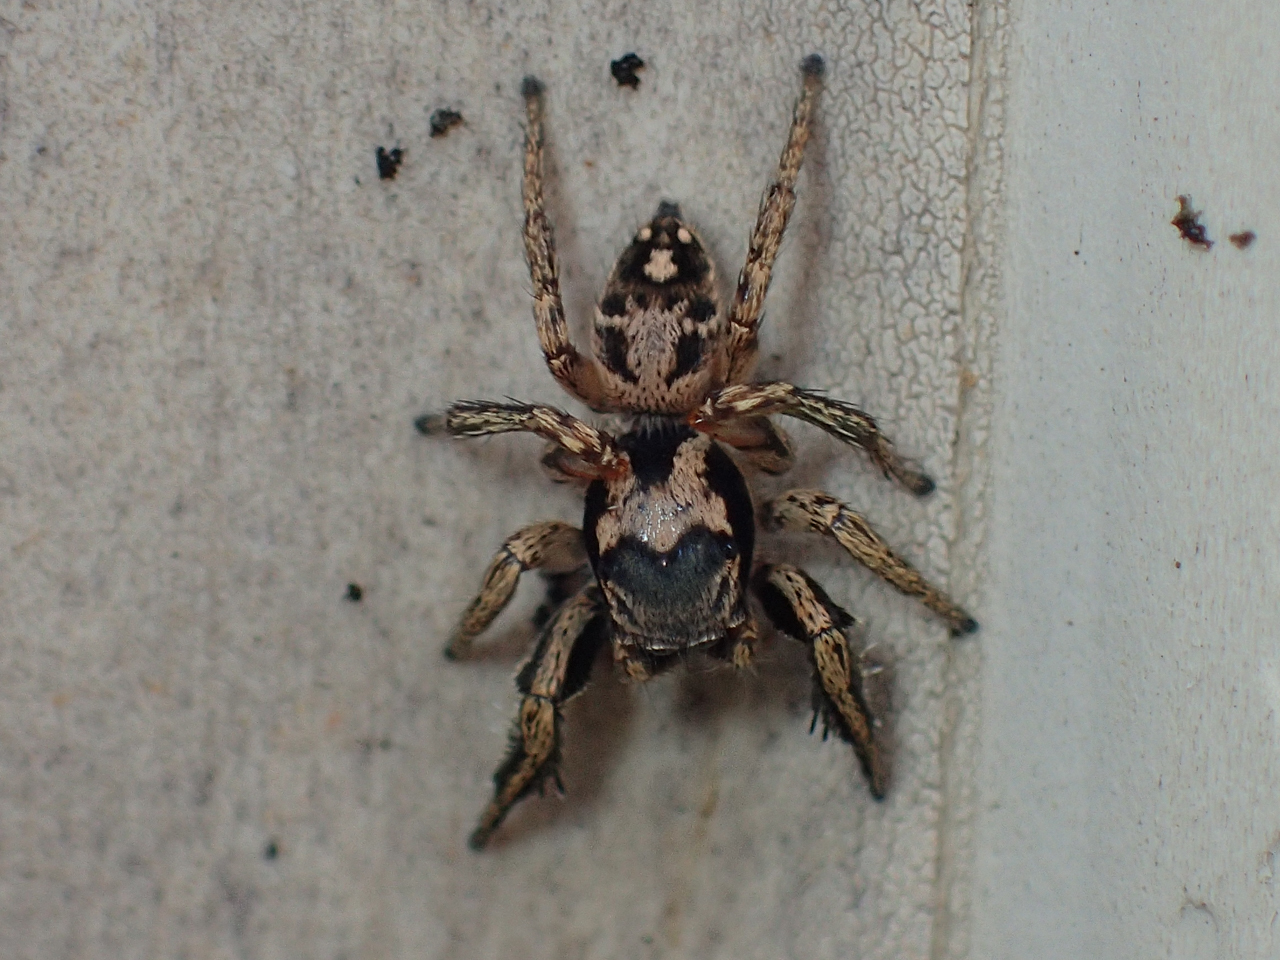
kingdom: Animalia
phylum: Arthropoda
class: Arachnida
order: Araneae
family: Salticidae
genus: Habronattus
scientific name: Habronattus coecatus
